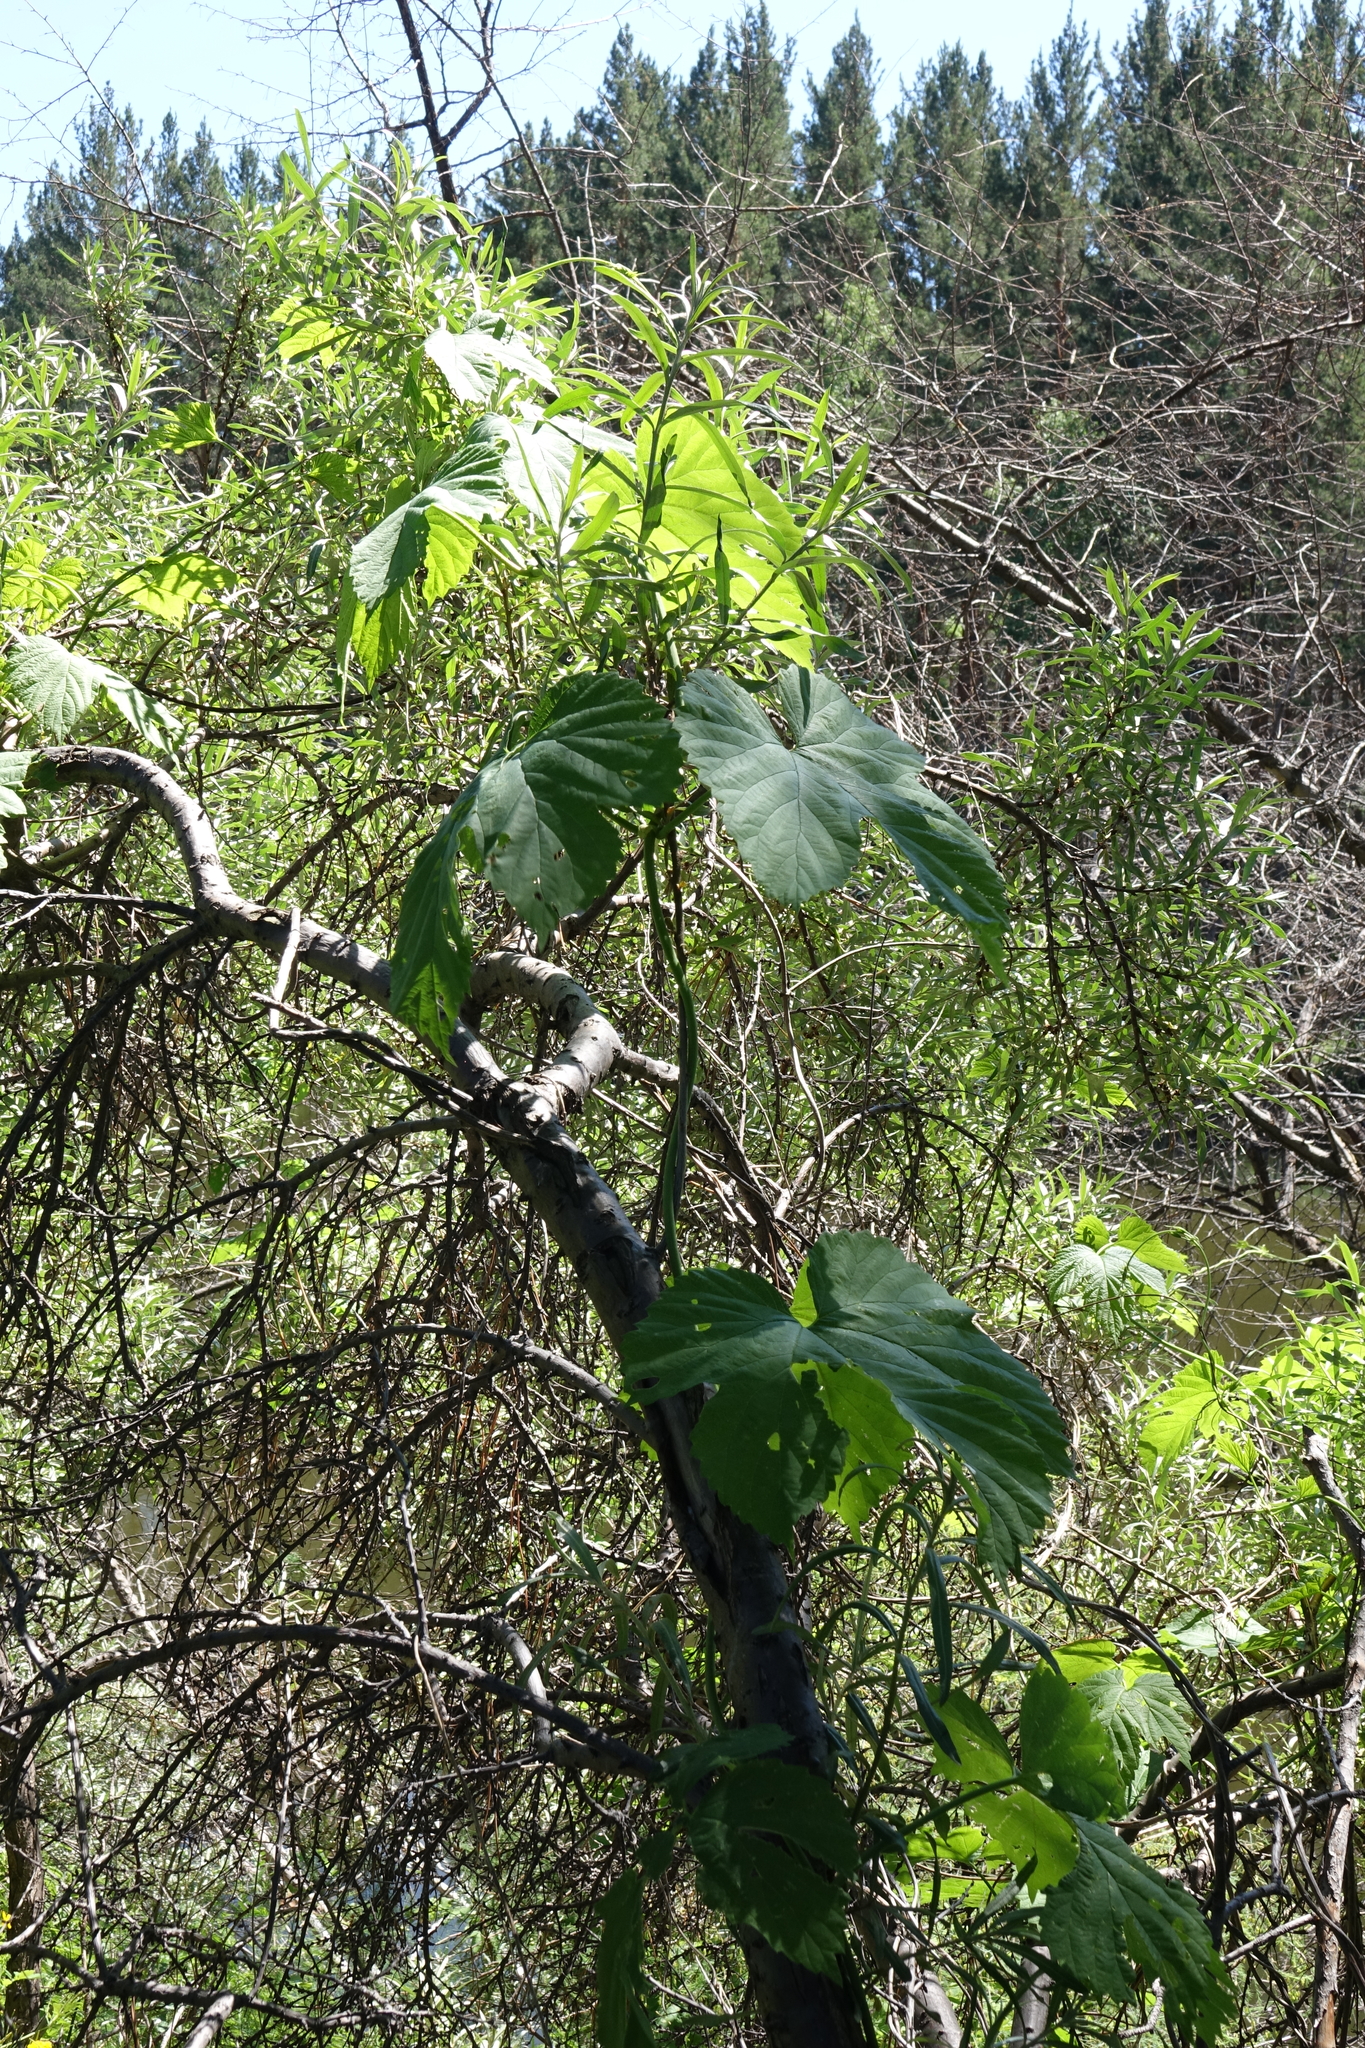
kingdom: Plantae
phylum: Tracheophyta
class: Magnoliopsida
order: Rosales
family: Cannabaceae
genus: Humulus
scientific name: Humulus lupulus
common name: Hop
